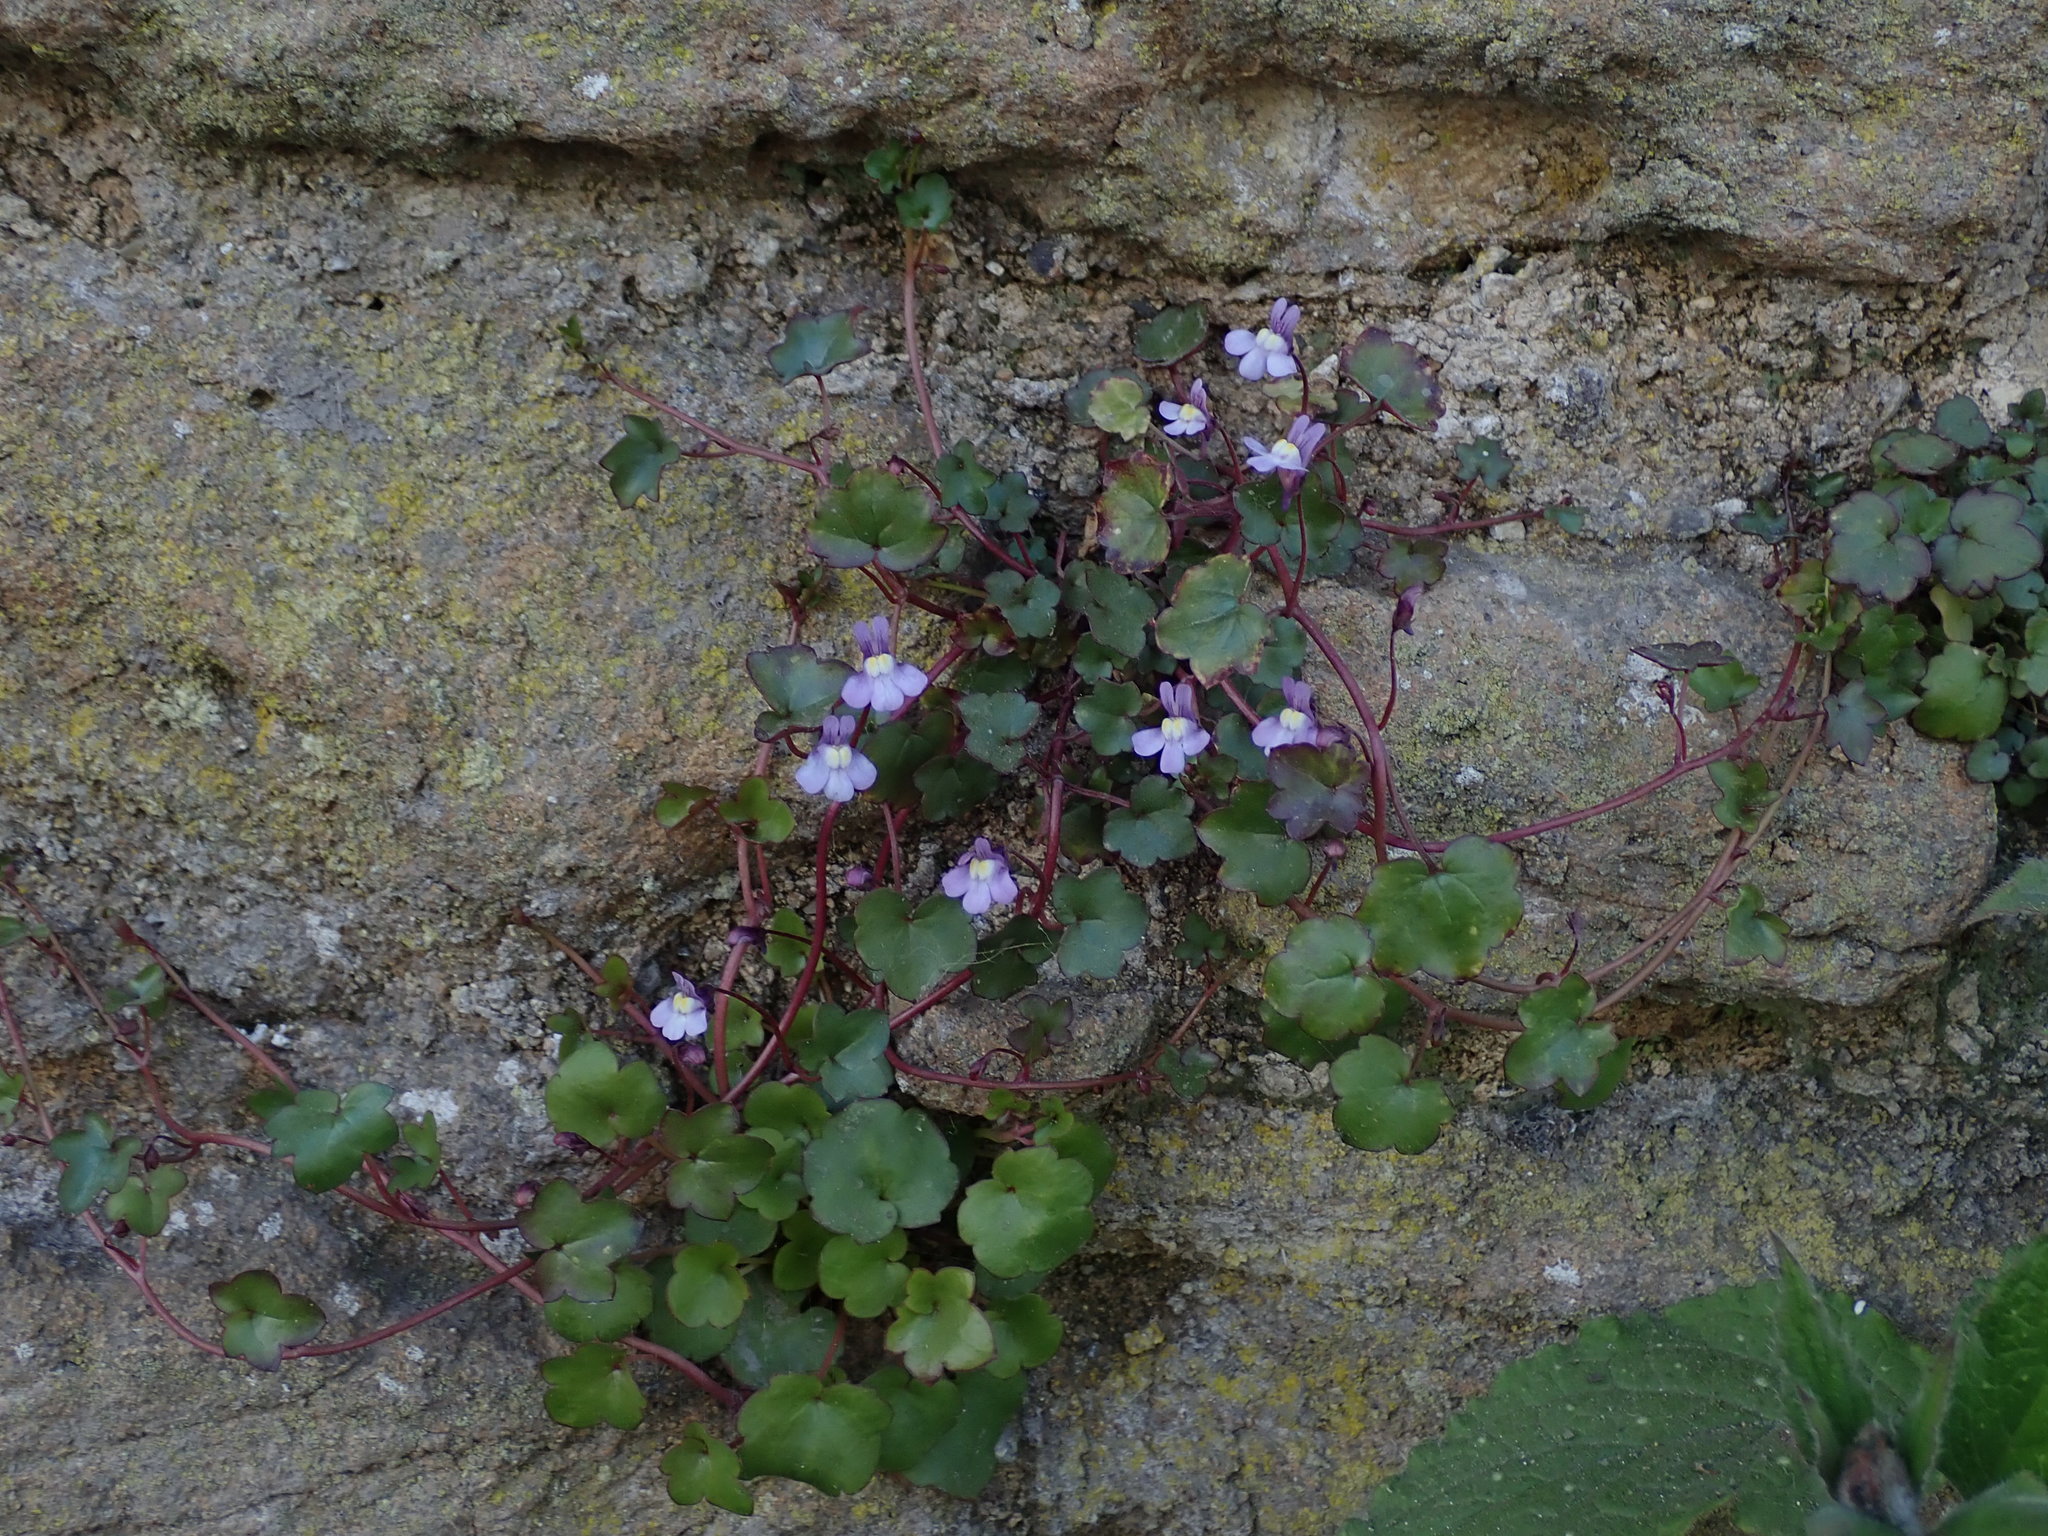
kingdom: Plantae
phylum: Tracheophyta
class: Magnoliopsida
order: Lamiales
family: Plantaginaceae
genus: Cymbalaria
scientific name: Cymbalaria muralis
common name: Ivy-leaved toadflax
